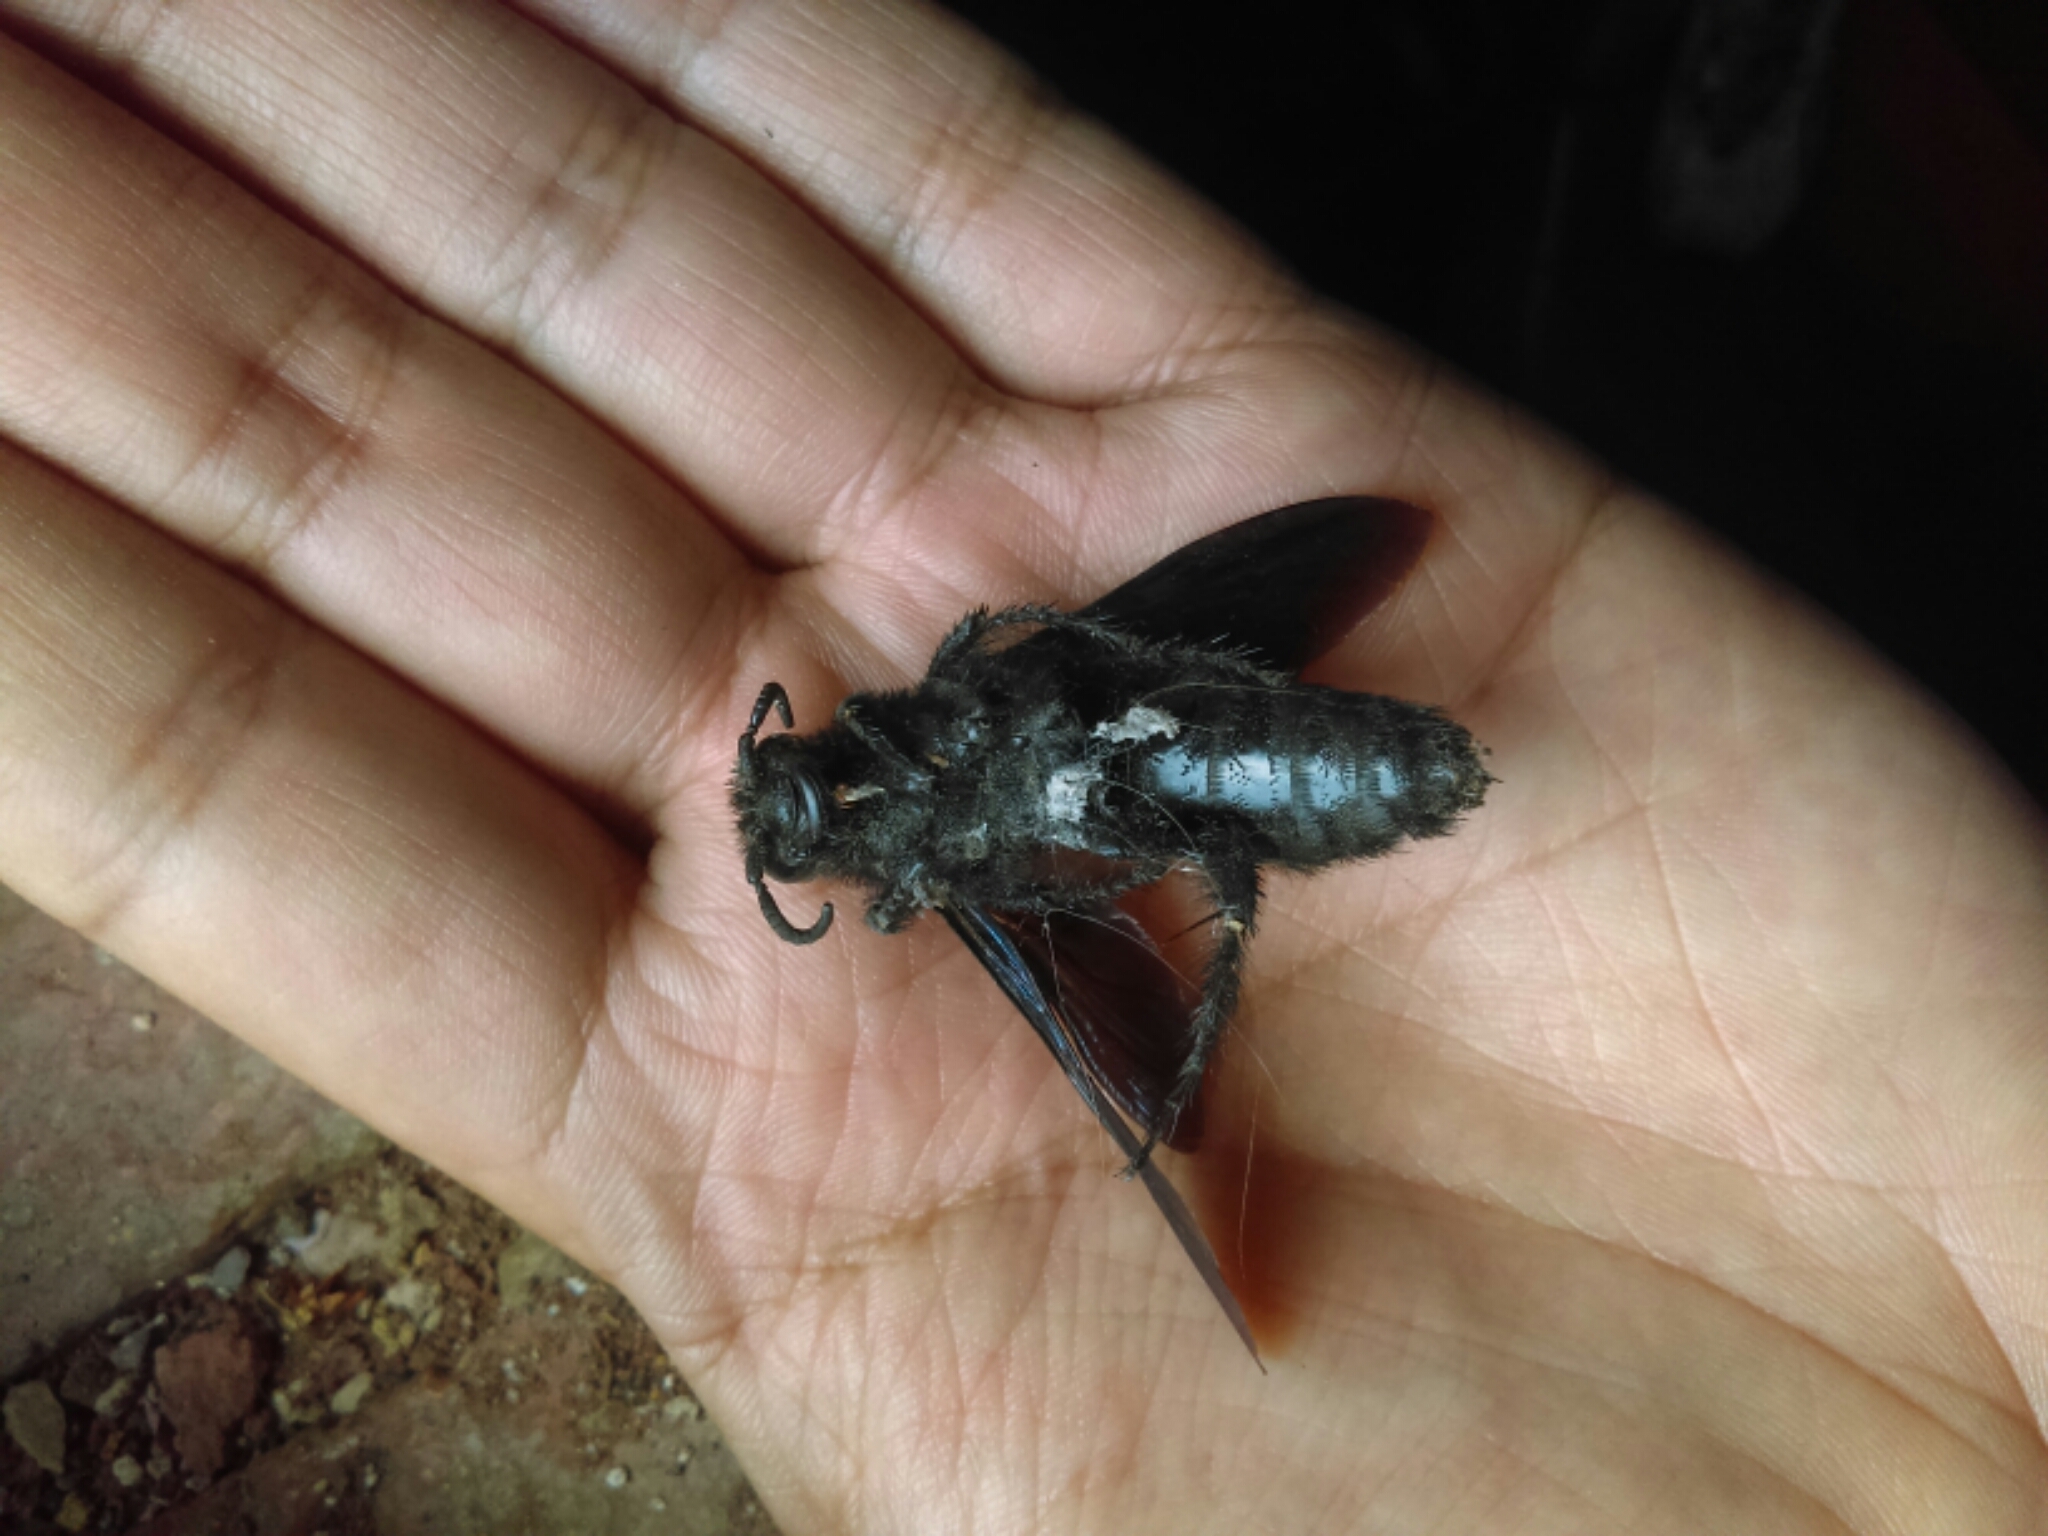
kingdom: Animalia
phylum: Arthropoda
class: Insecta
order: Hymenoptera
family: Scoliidae
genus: Pygodasis
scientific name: Pygodasis ephippium
